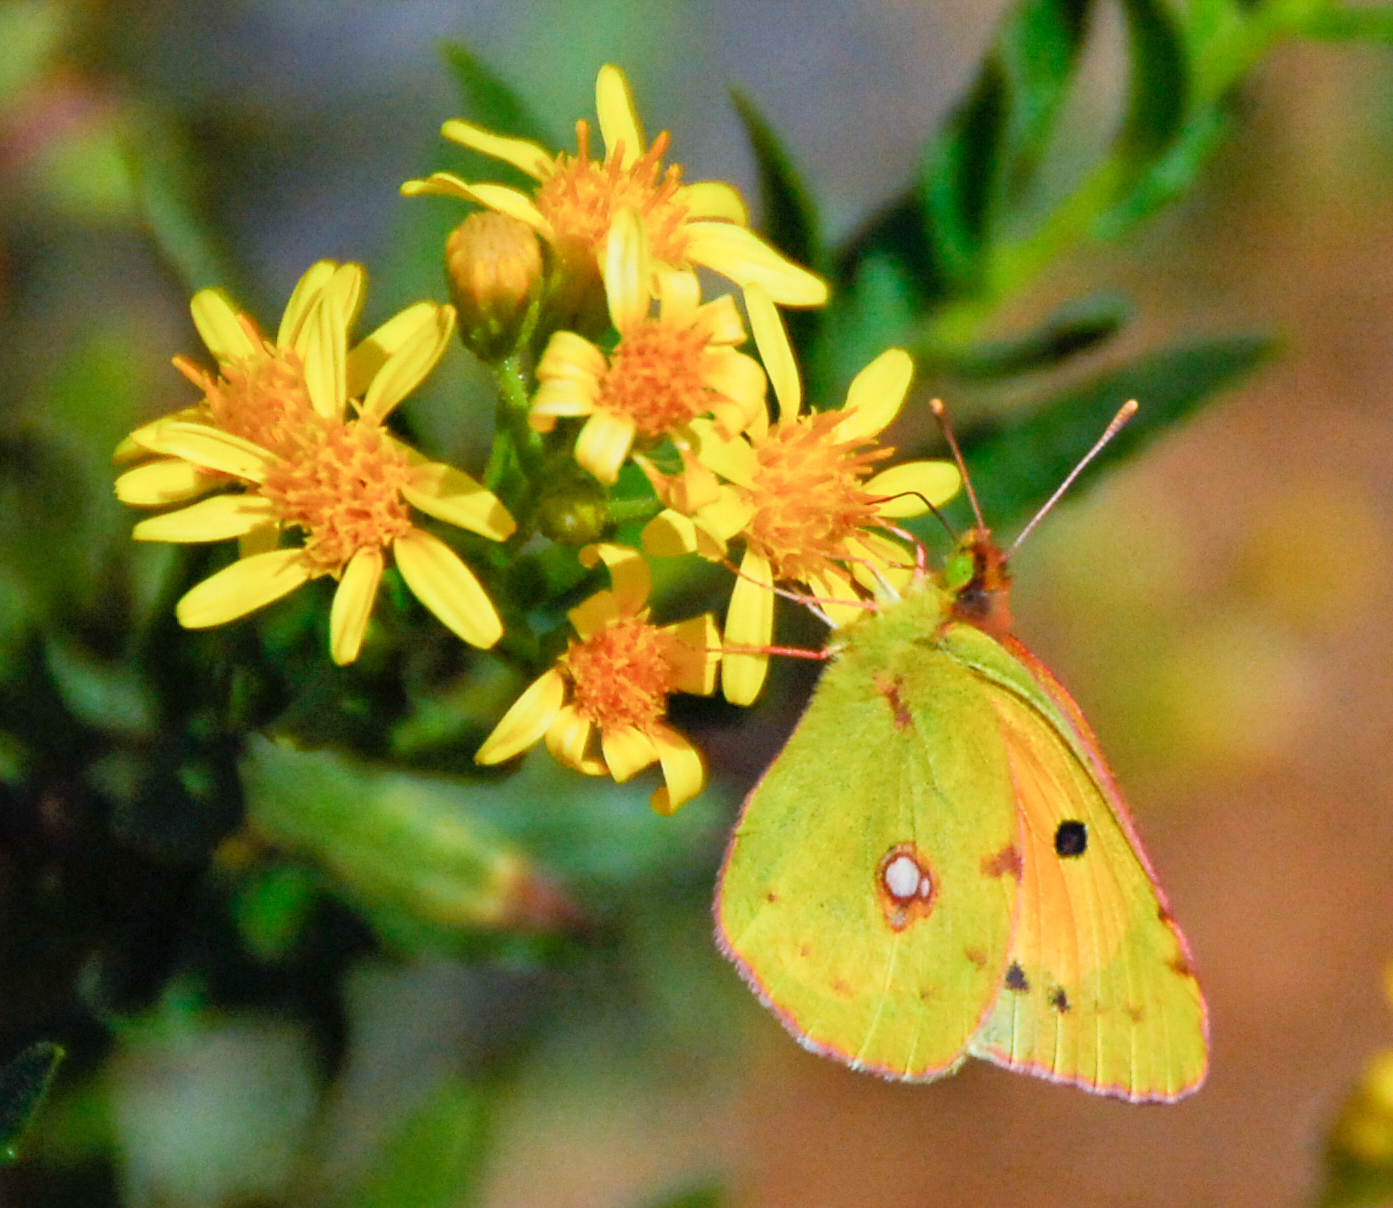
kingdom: Animalia
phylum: Arthropoda
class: Insecta
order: Lepidoptera
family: Pieridae
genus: Colias
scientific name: Colias croceus
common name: Clouded yellow
